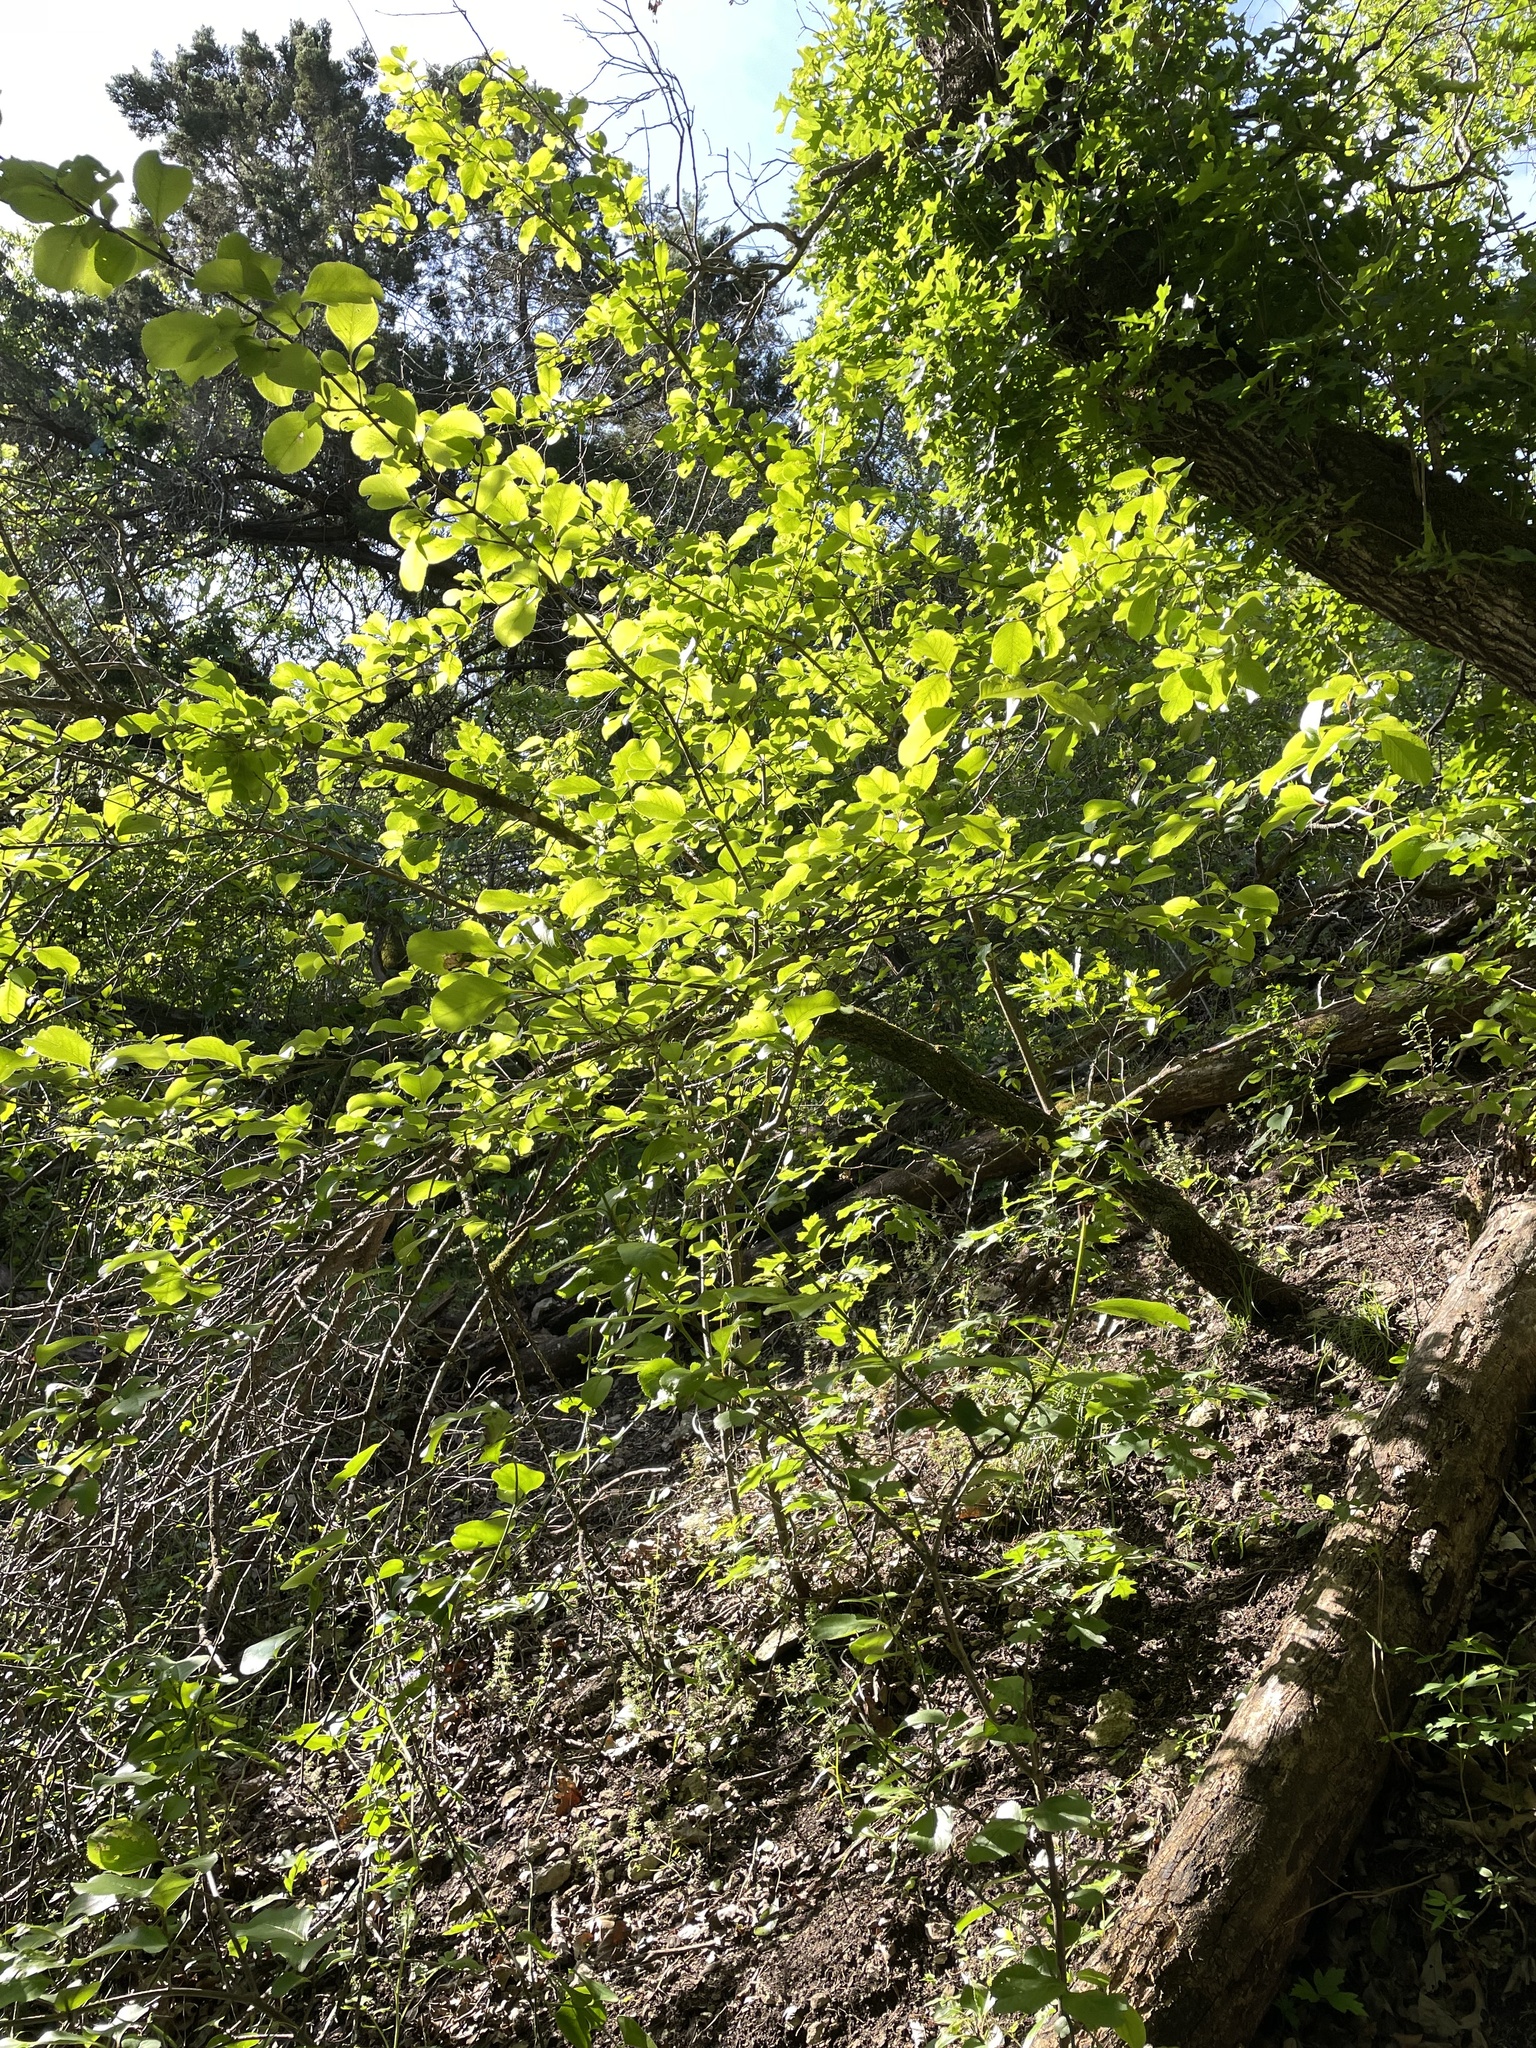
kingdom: Plantae
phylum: Tracheophyta
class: Magnoliopsida
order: Dipsacales
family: Viburnaceae
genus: Viburnum
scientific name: Viburnum rufidulum
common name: Blue haw
